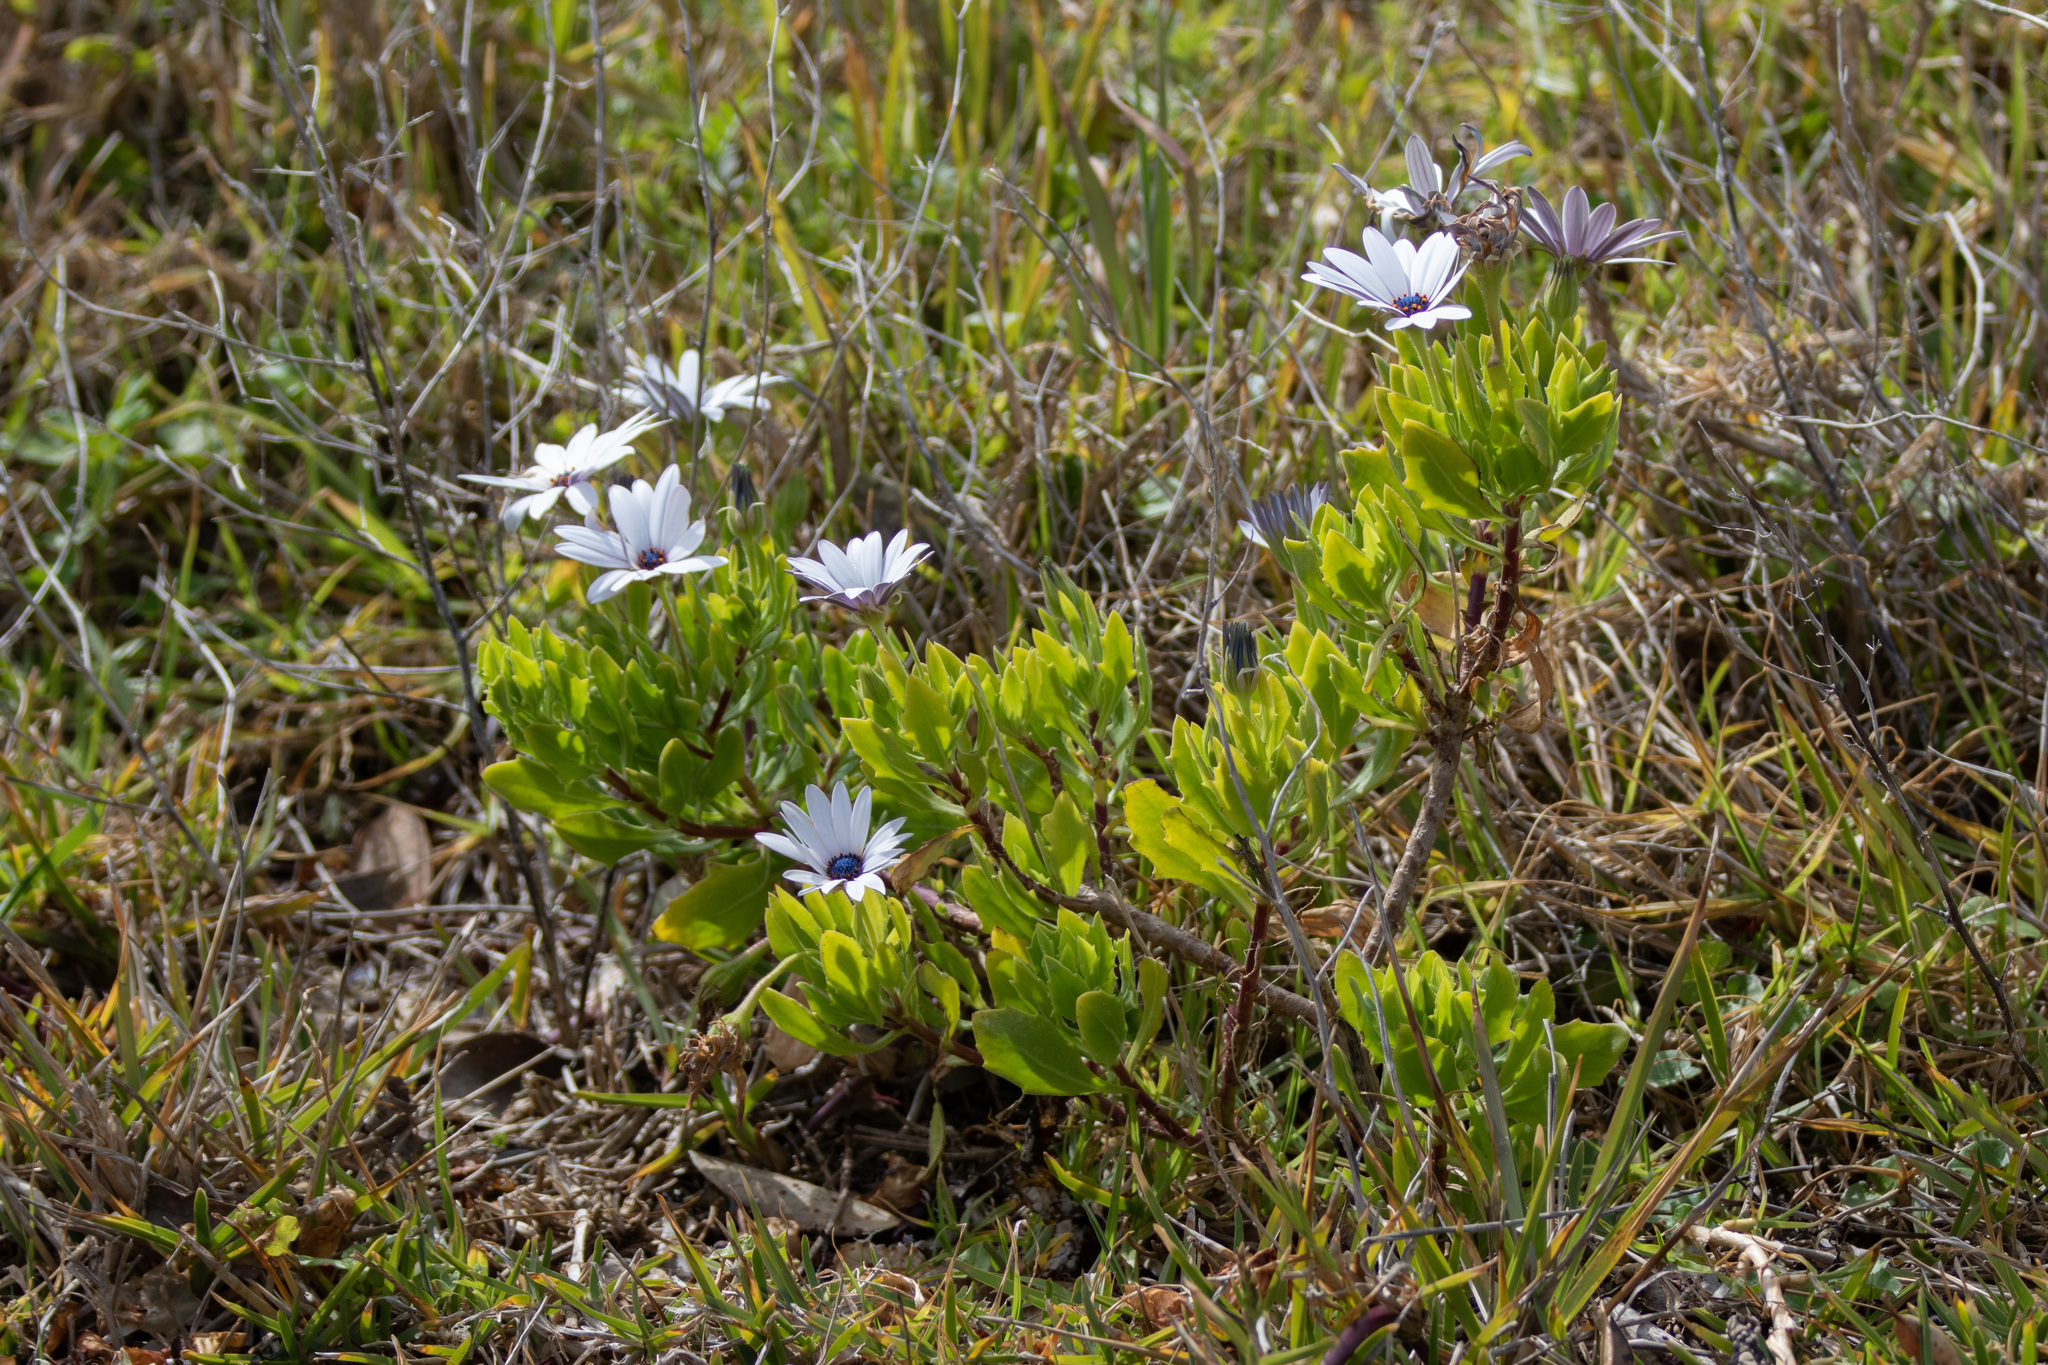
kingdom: Plantae
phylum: Tracheophyta
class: Magnoliopsida
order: Asterales
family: Asteraceae
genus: Dimorphotheca
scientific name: Dimorphotheca fruticosa
